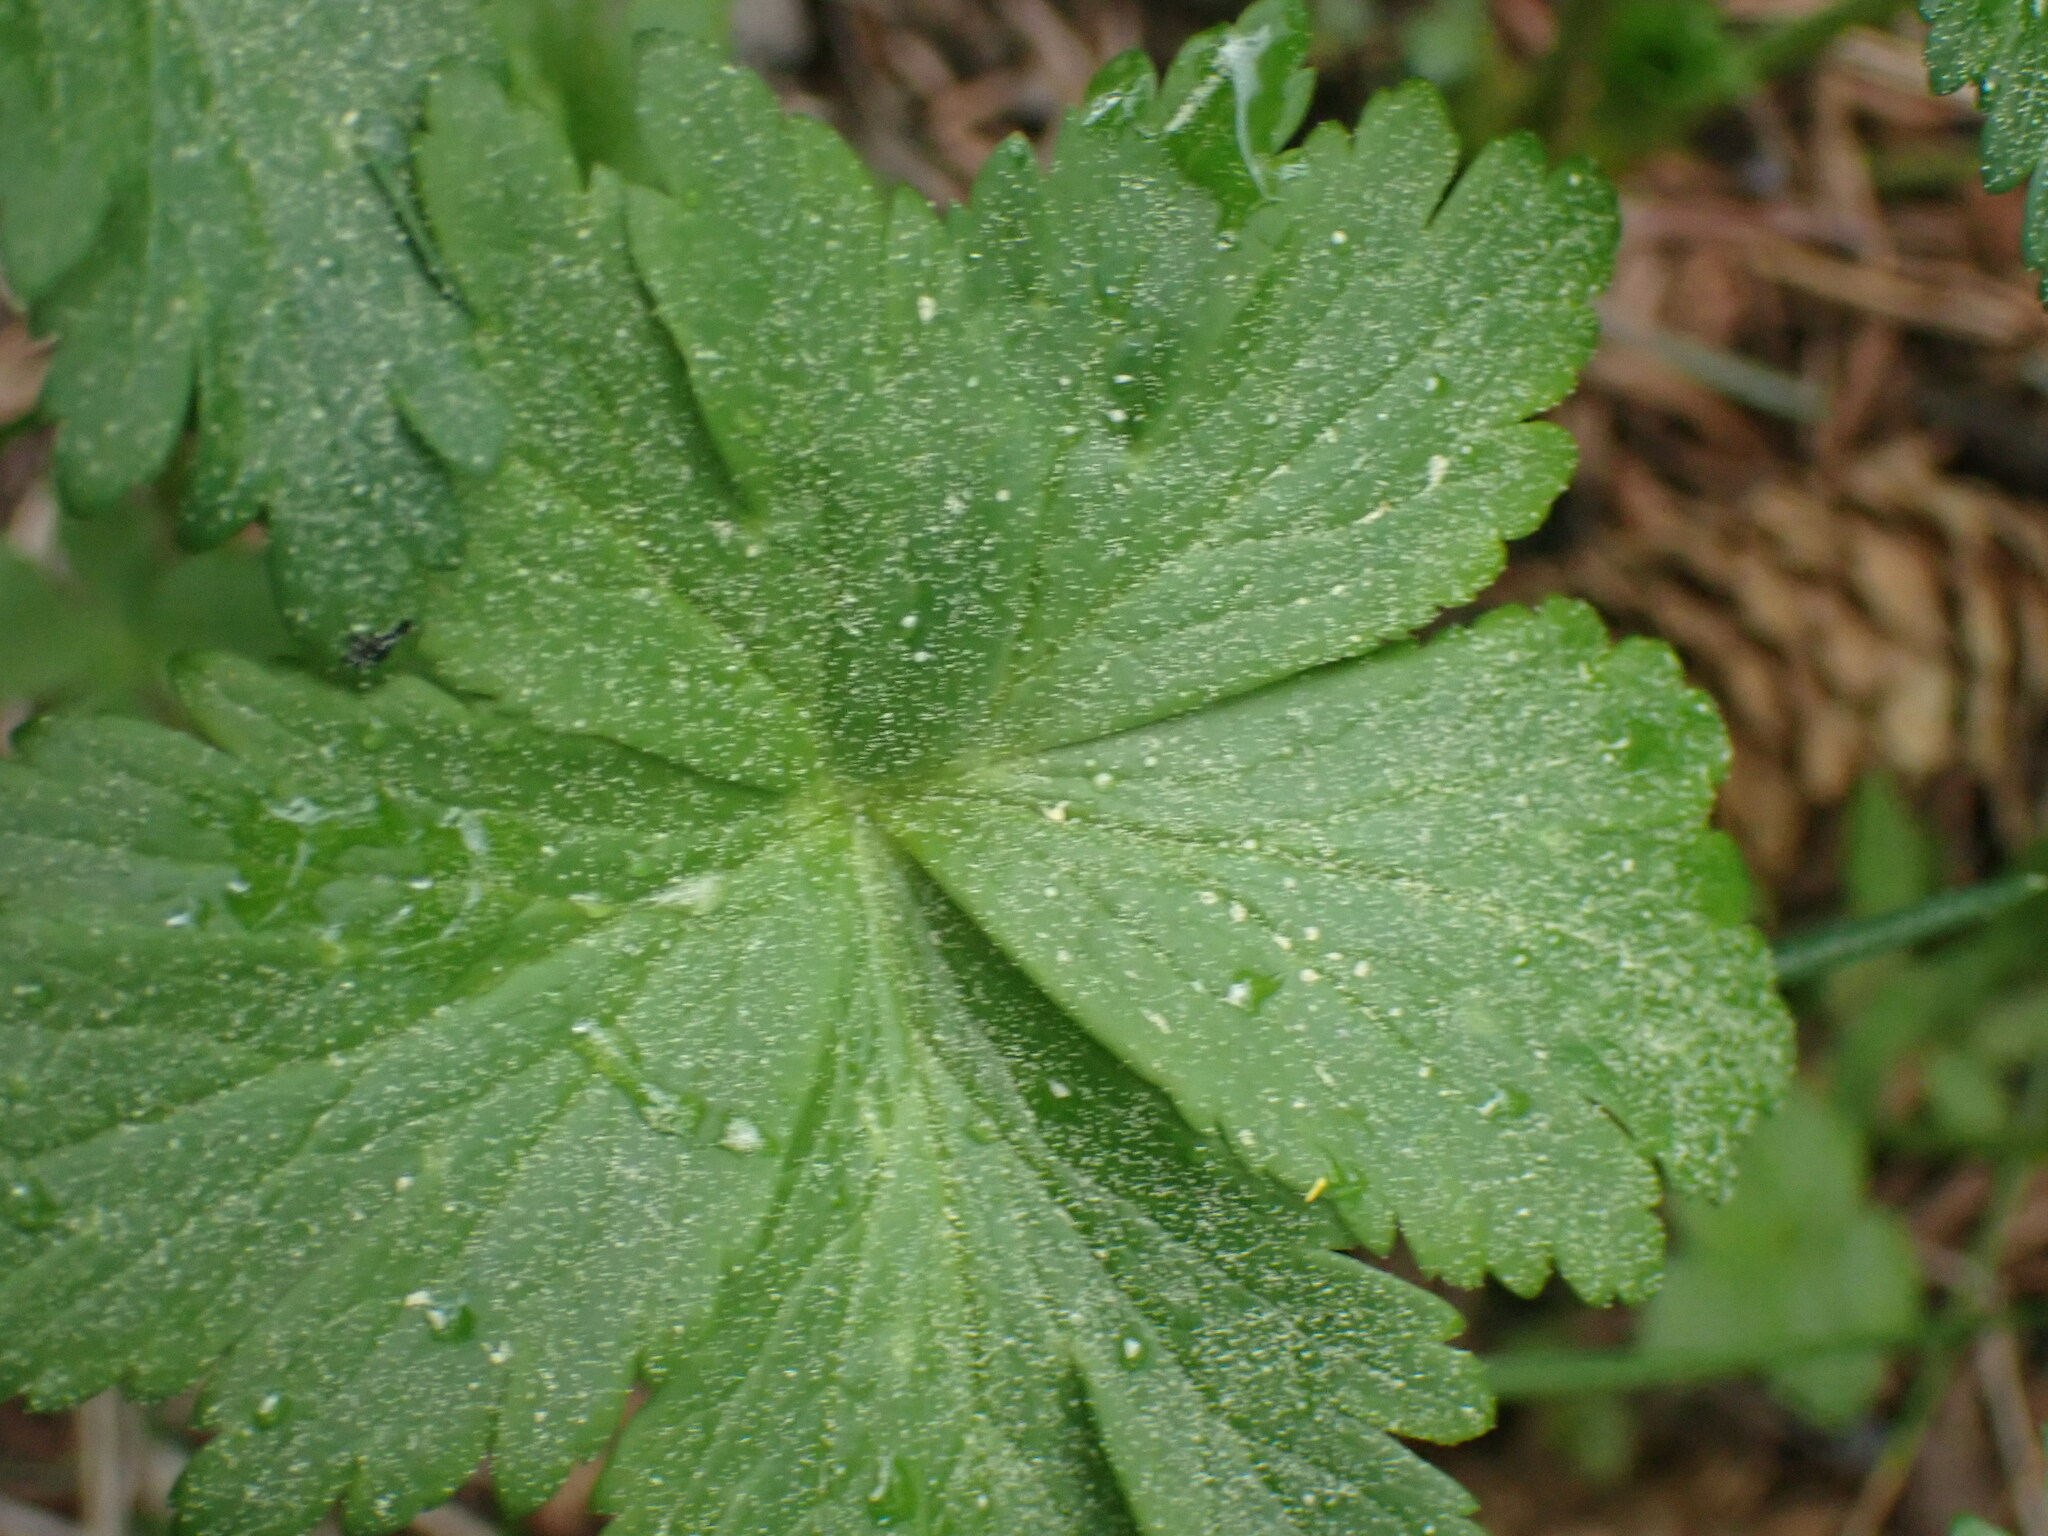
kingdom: Plantae
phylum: Tracheophyta
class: Magnoliopsida
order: Ranunculales
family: Ranunculaceae
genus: Trollius
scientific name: Trollius laxus
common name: American globeflower
